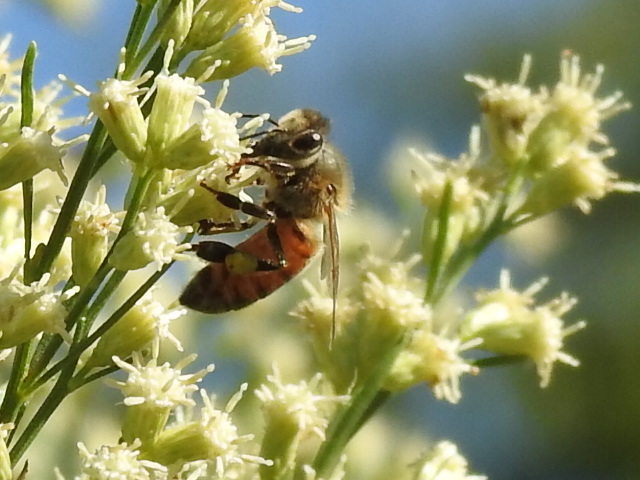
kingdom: Animalia
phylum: Arthropoda
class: Insecta
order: Hymenoptera
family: Apidae
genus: Apis
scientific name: Apis mellifera
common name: Honey bee
